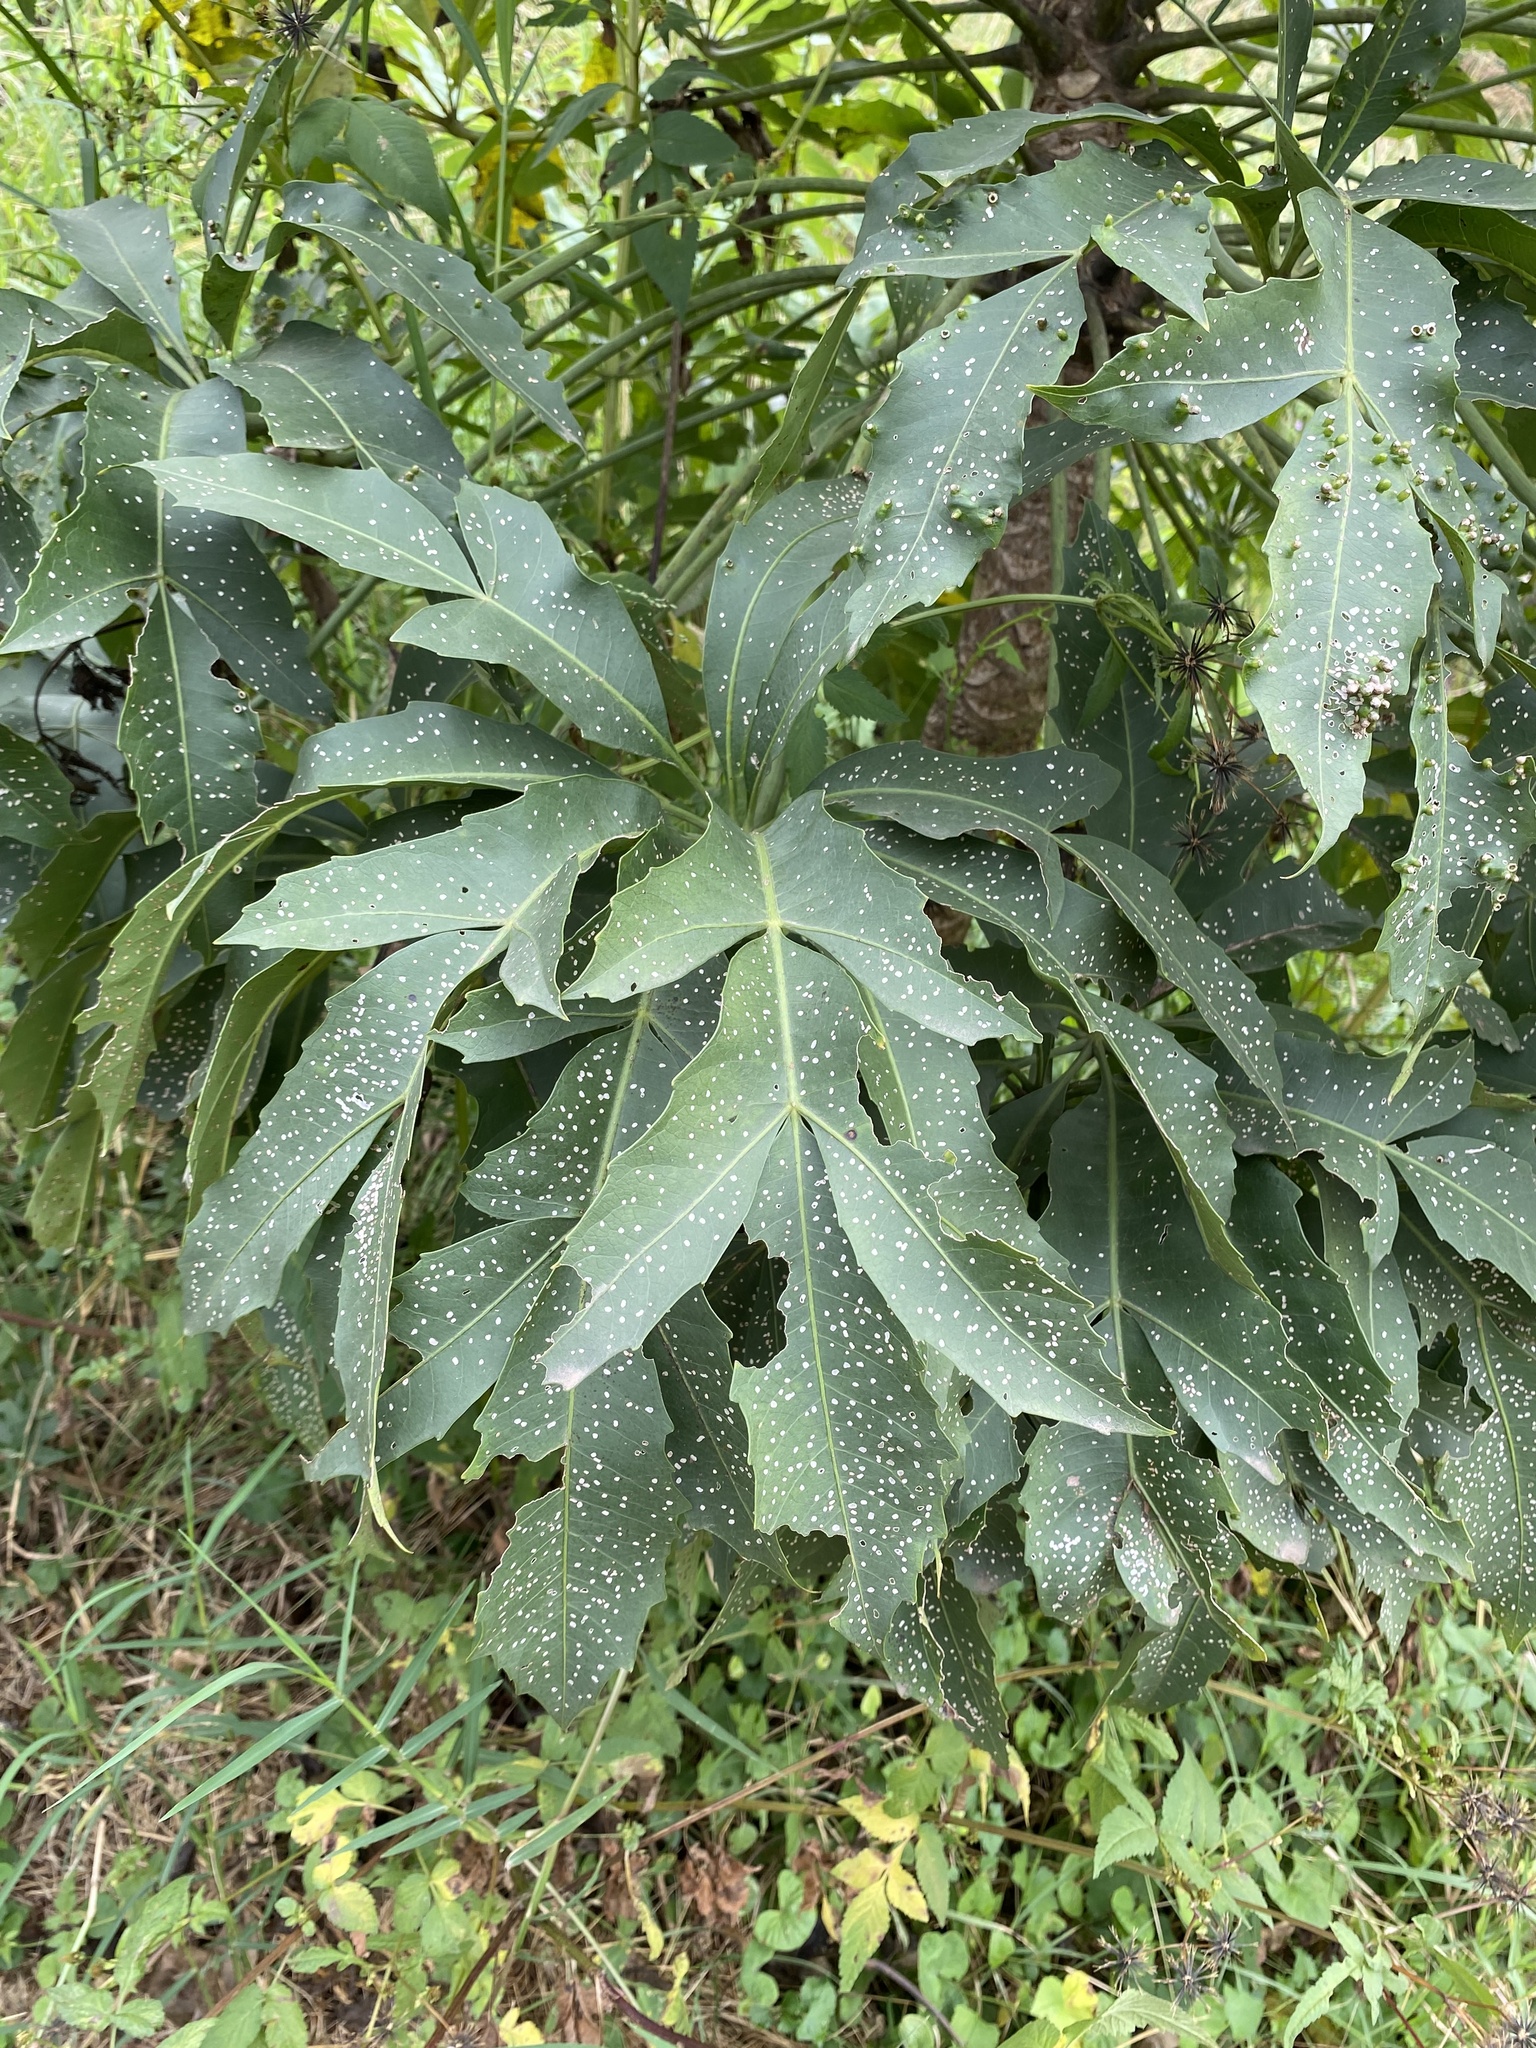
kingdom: Plantae
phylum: Tracheophyta
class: Magnoliopsida
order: Apiales
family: Araliaceae
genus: Cussonia
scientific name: Cussonia spicata
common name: Common cabbagetree
